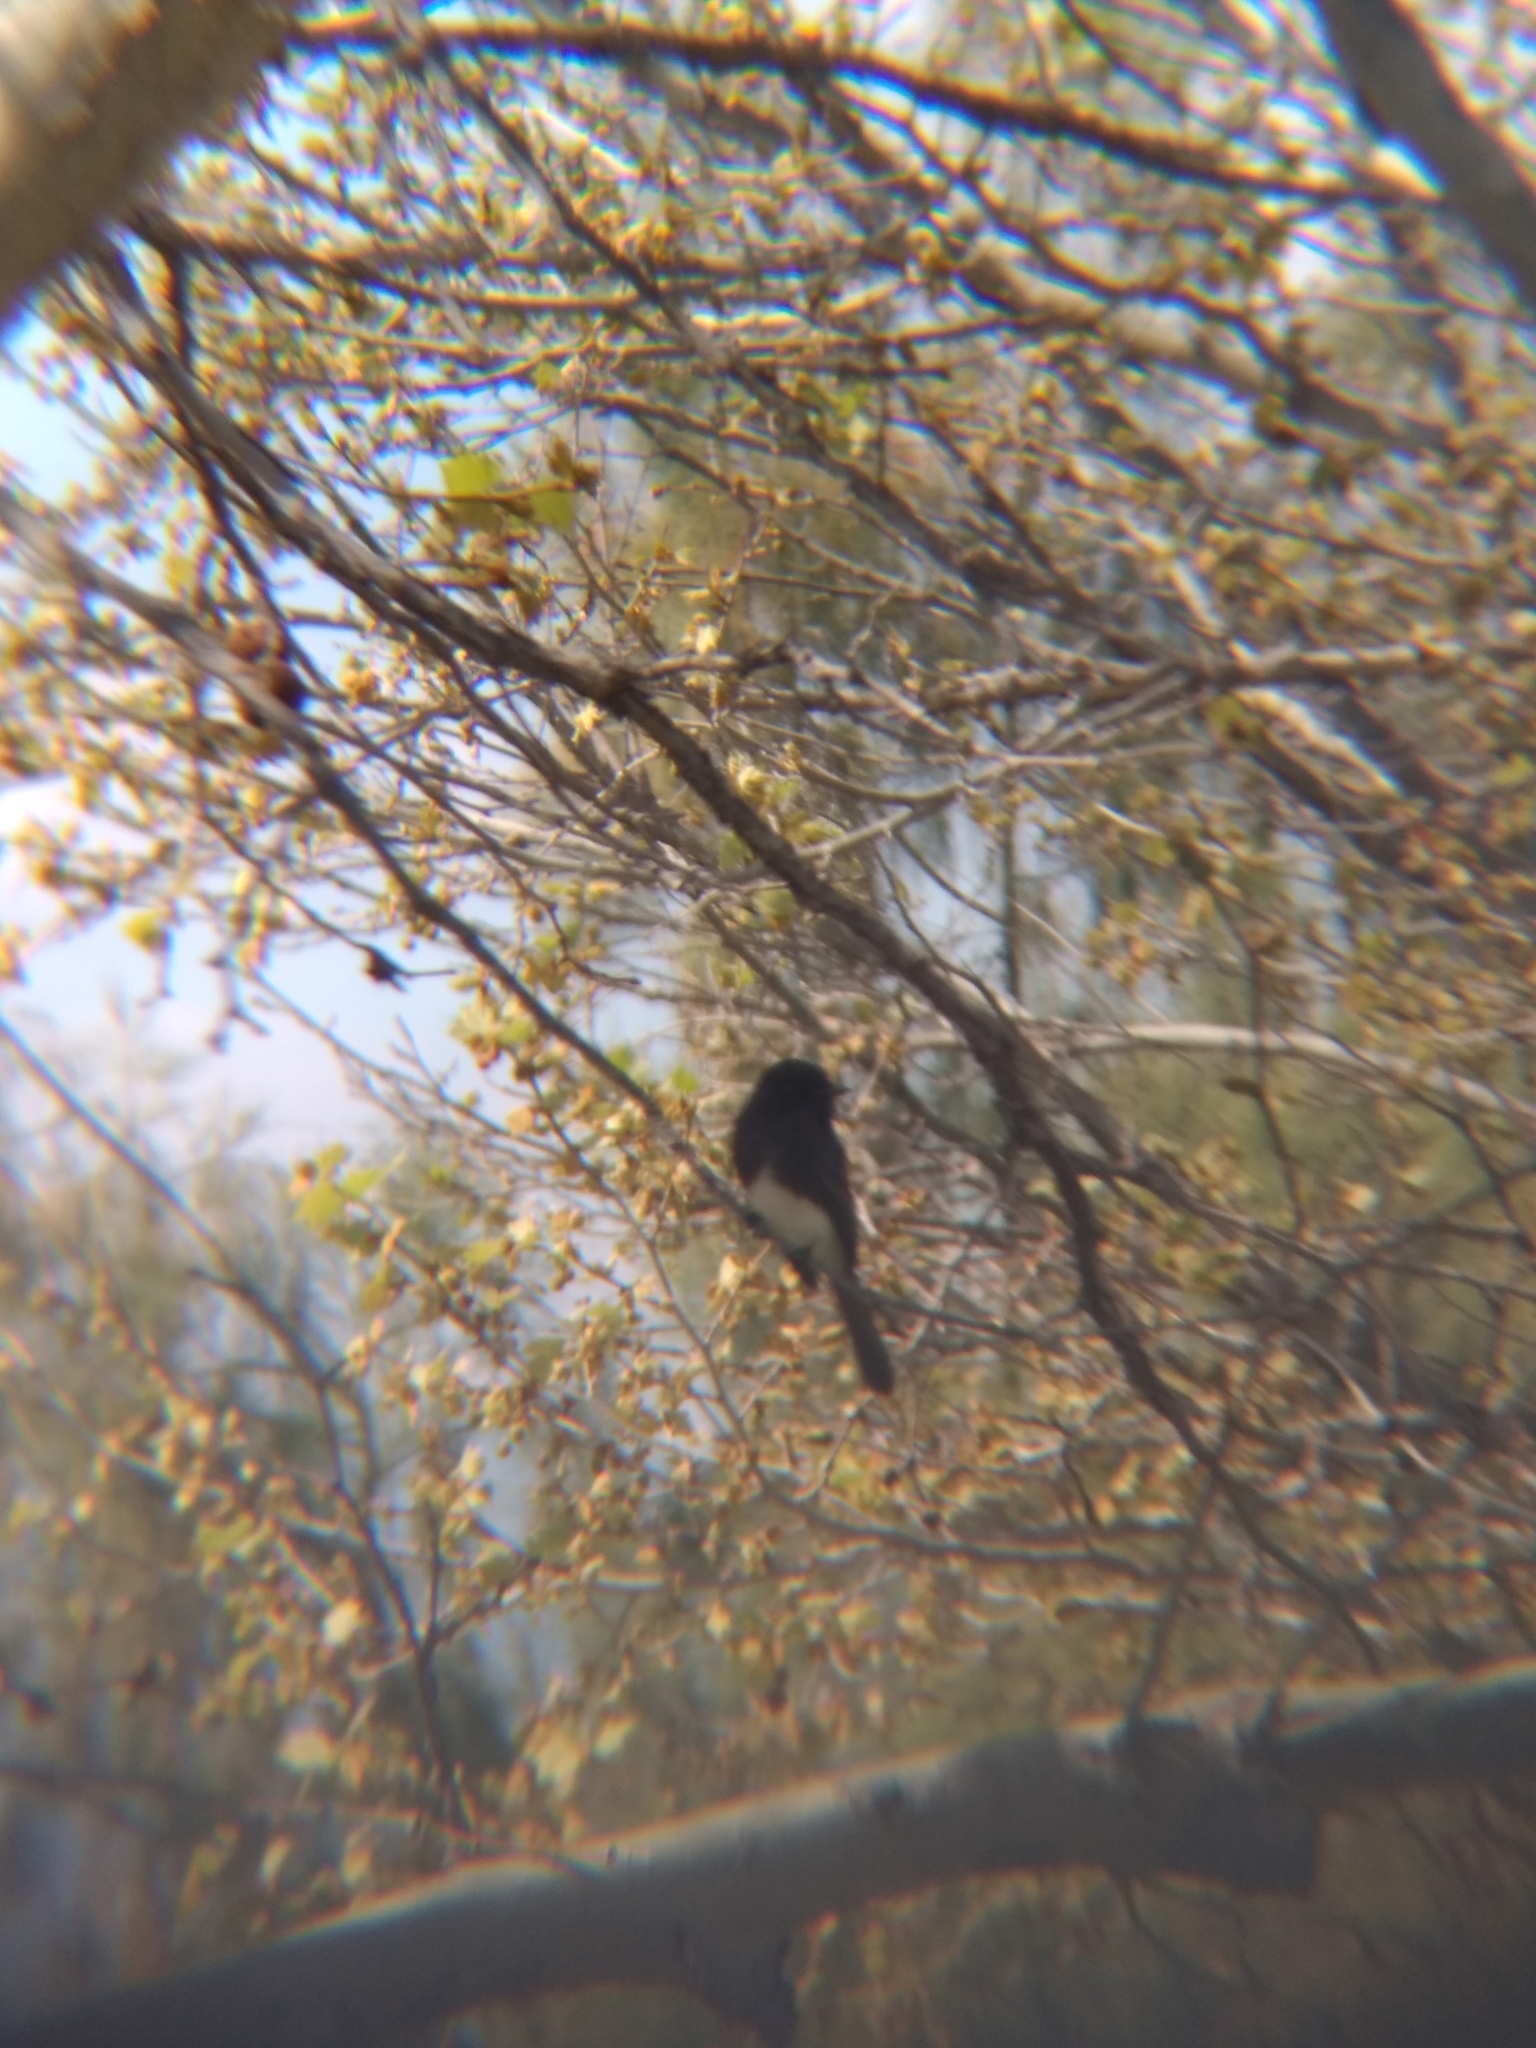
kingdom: Animalia
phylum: Chordata
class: Aves
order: Passeriformes
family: Tyrannidae
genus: Sayornis
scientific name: Sayornis nigricans
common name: Black phoebe
